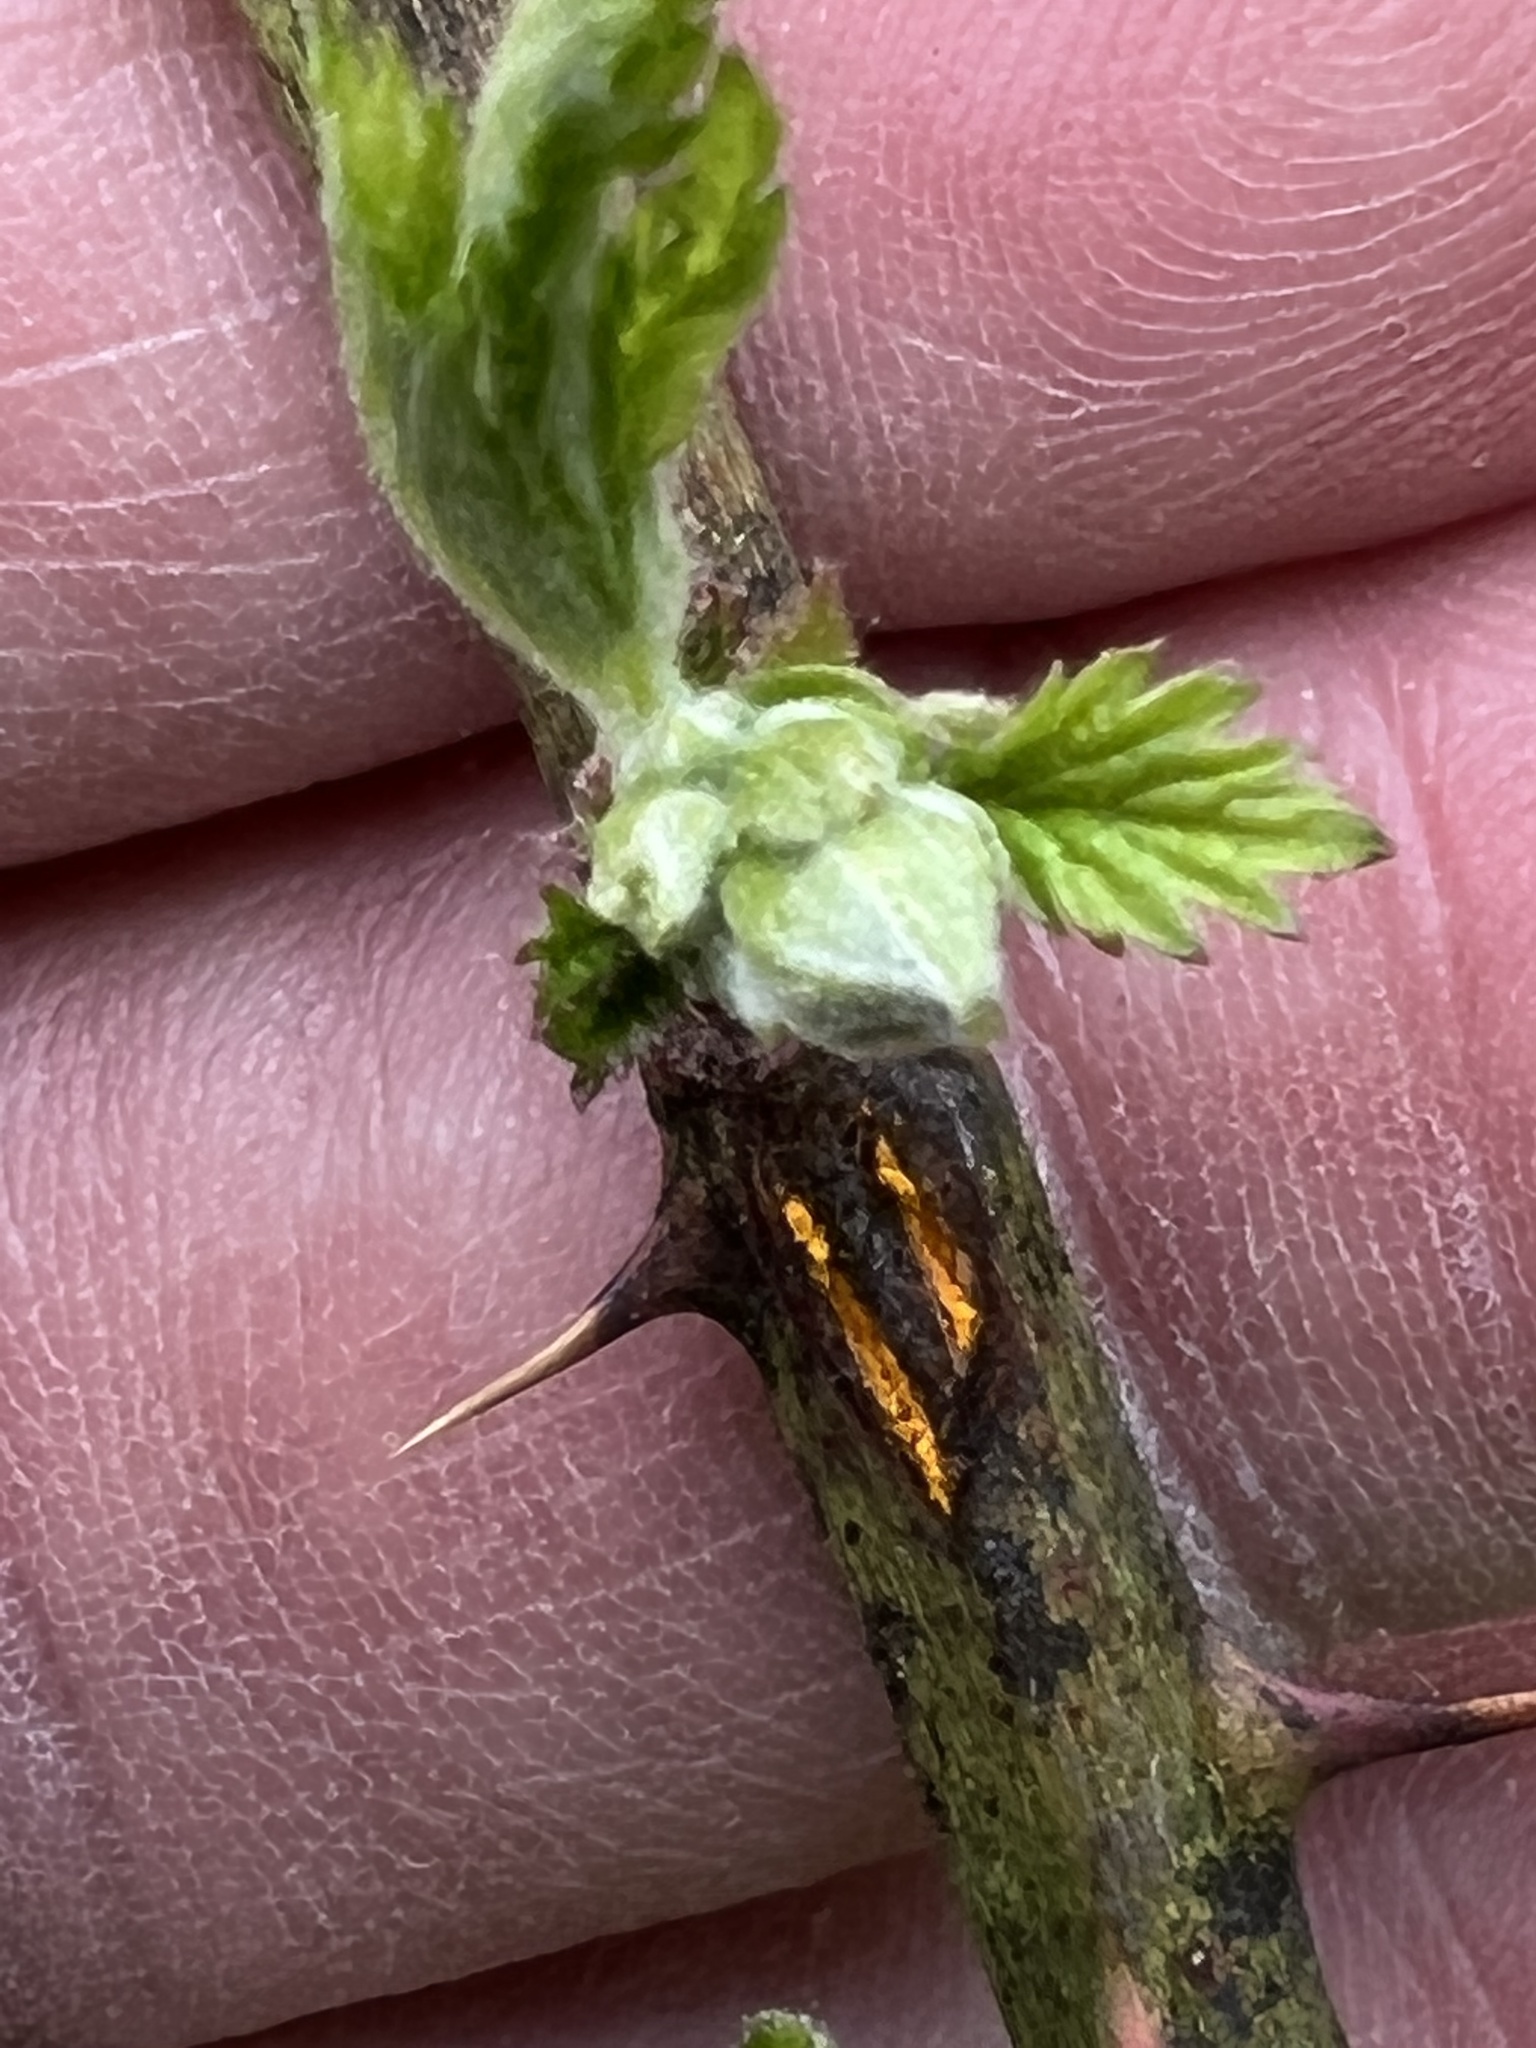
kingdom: Fungi
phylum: Basidiomycota
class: Pucciniomycetes
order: Pucciniales
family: Phragmidiaceae
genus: Kuehneola
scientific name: Kuehneola uredinis
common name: Bramble stem rust
